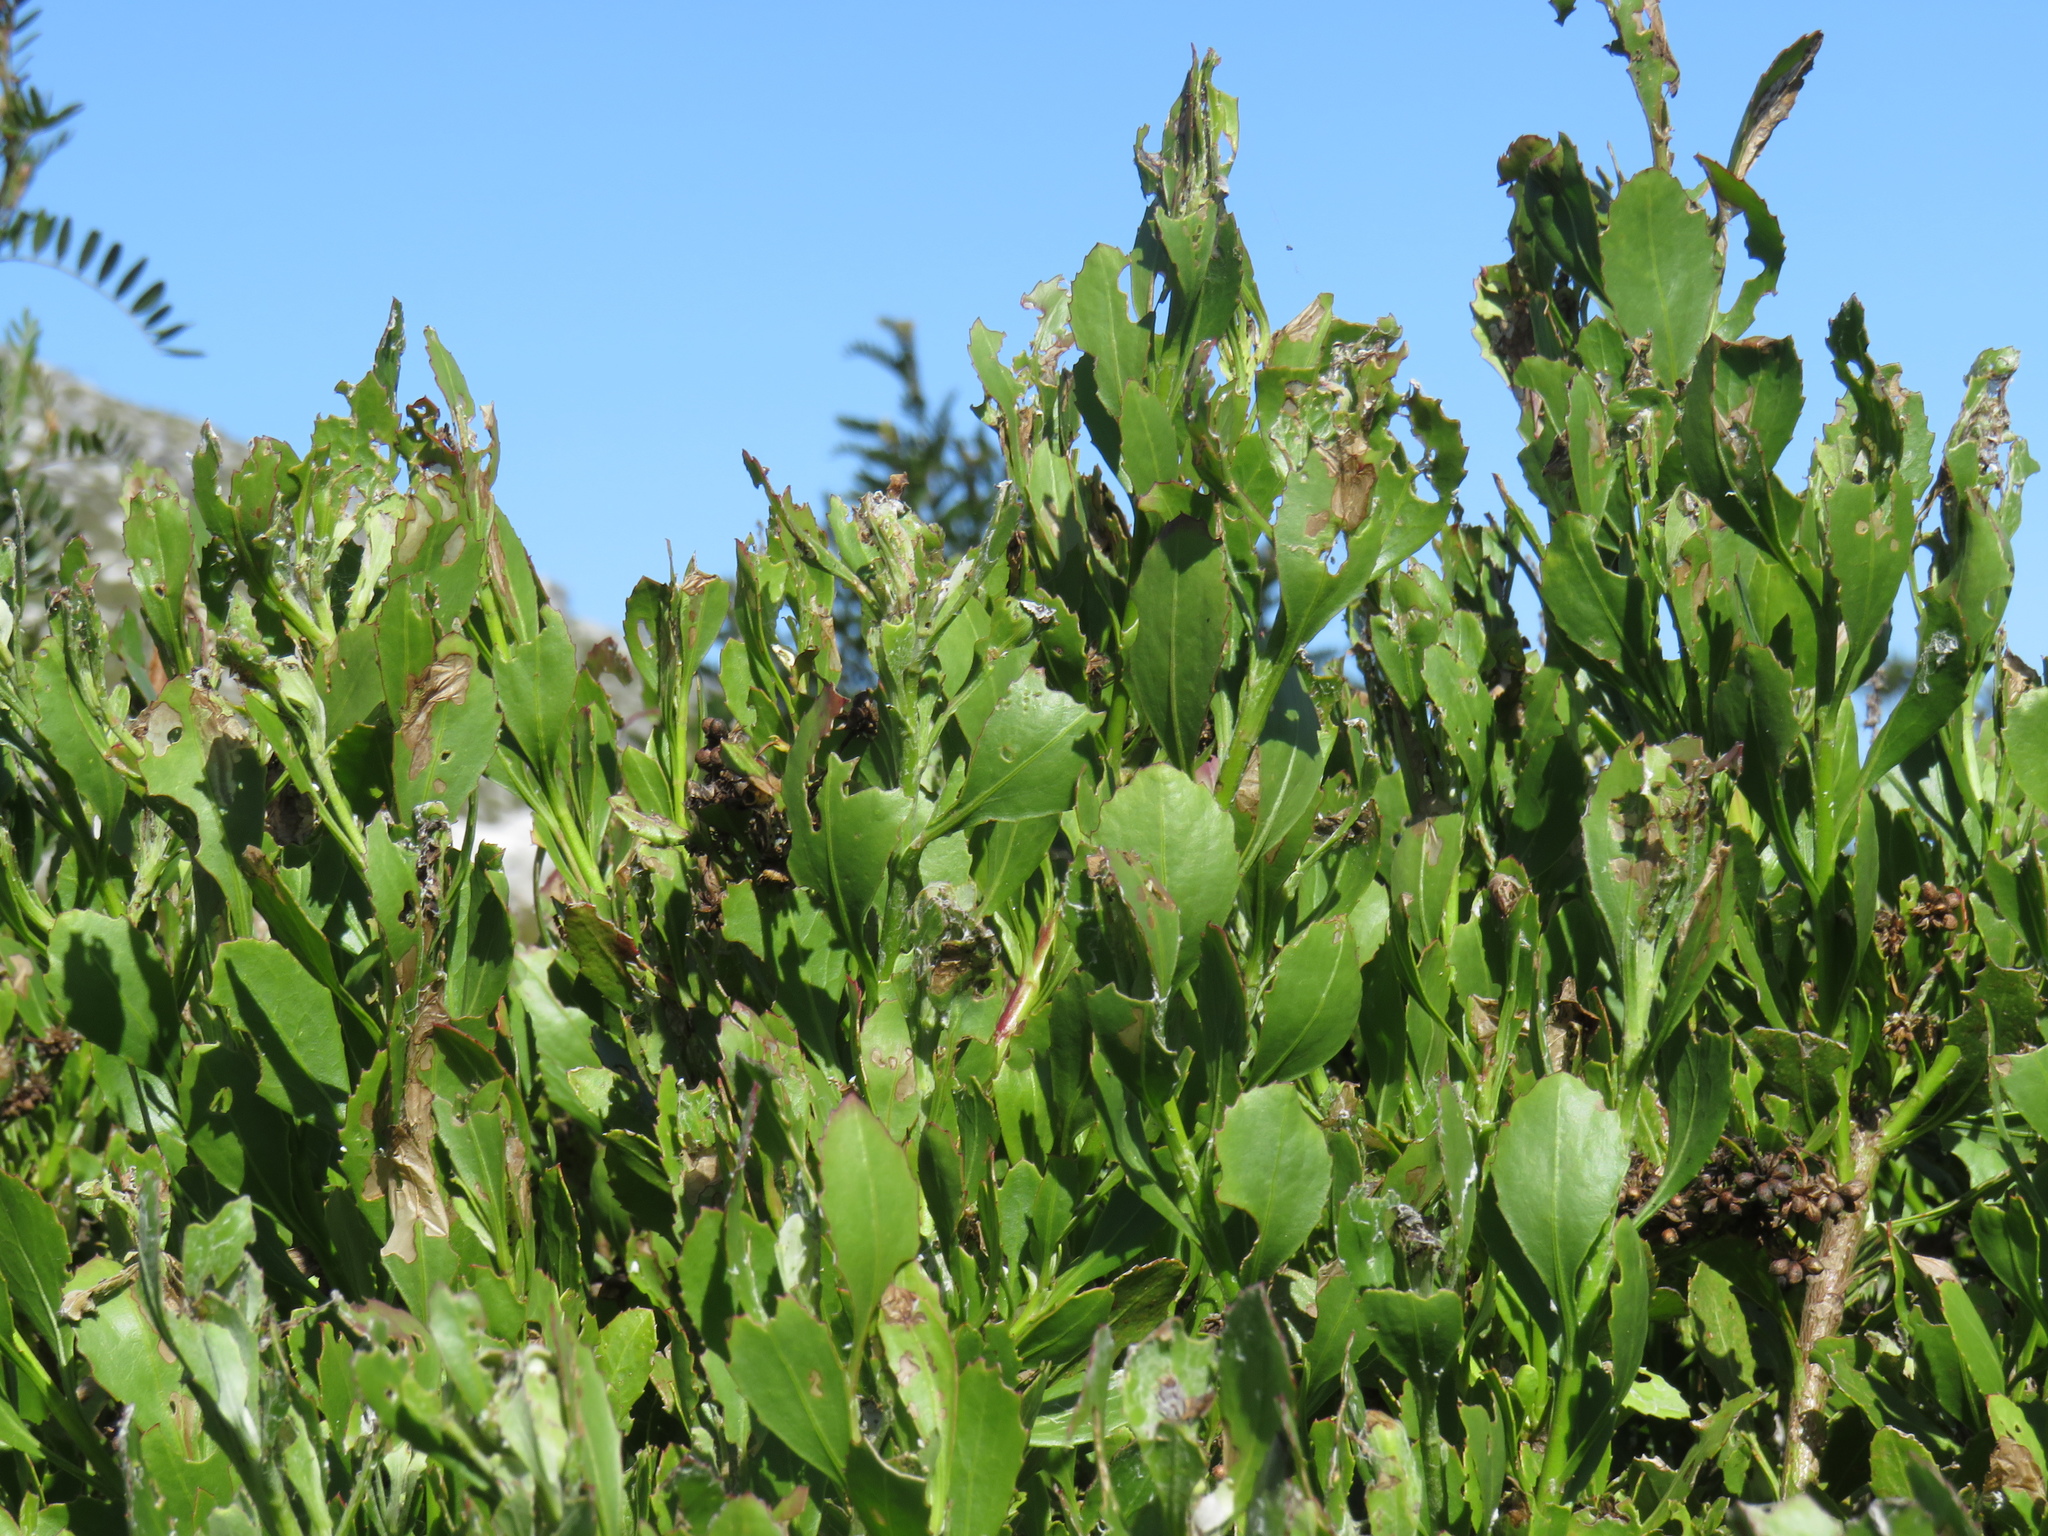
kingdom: Plantae
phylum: Tracheophyta
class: Magnoliopsida
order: Asterales
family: Asteraceae
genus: Osteospermum
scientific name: Osteospermum moniliferum
